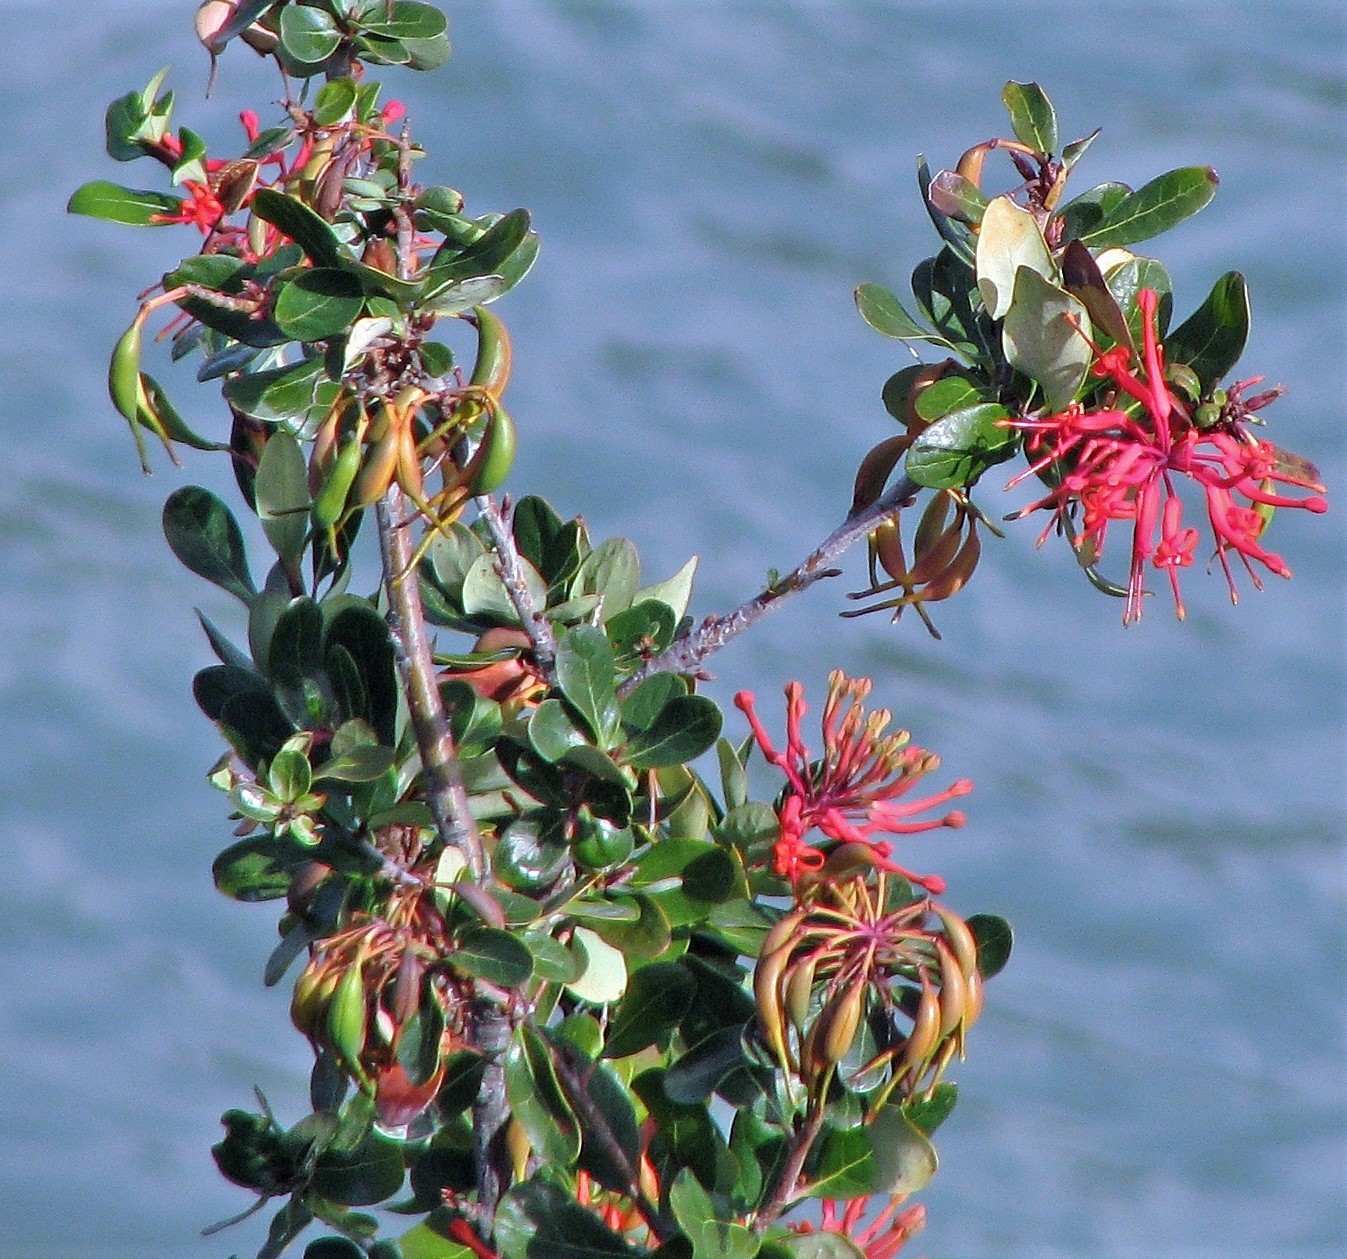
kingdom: Plantae
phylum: Tracheophyta
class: Magnoliopsida
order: Proteales
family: Proteaceae
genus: Embothrium
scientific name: Embothrium coccineum
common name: Chilean firebush
